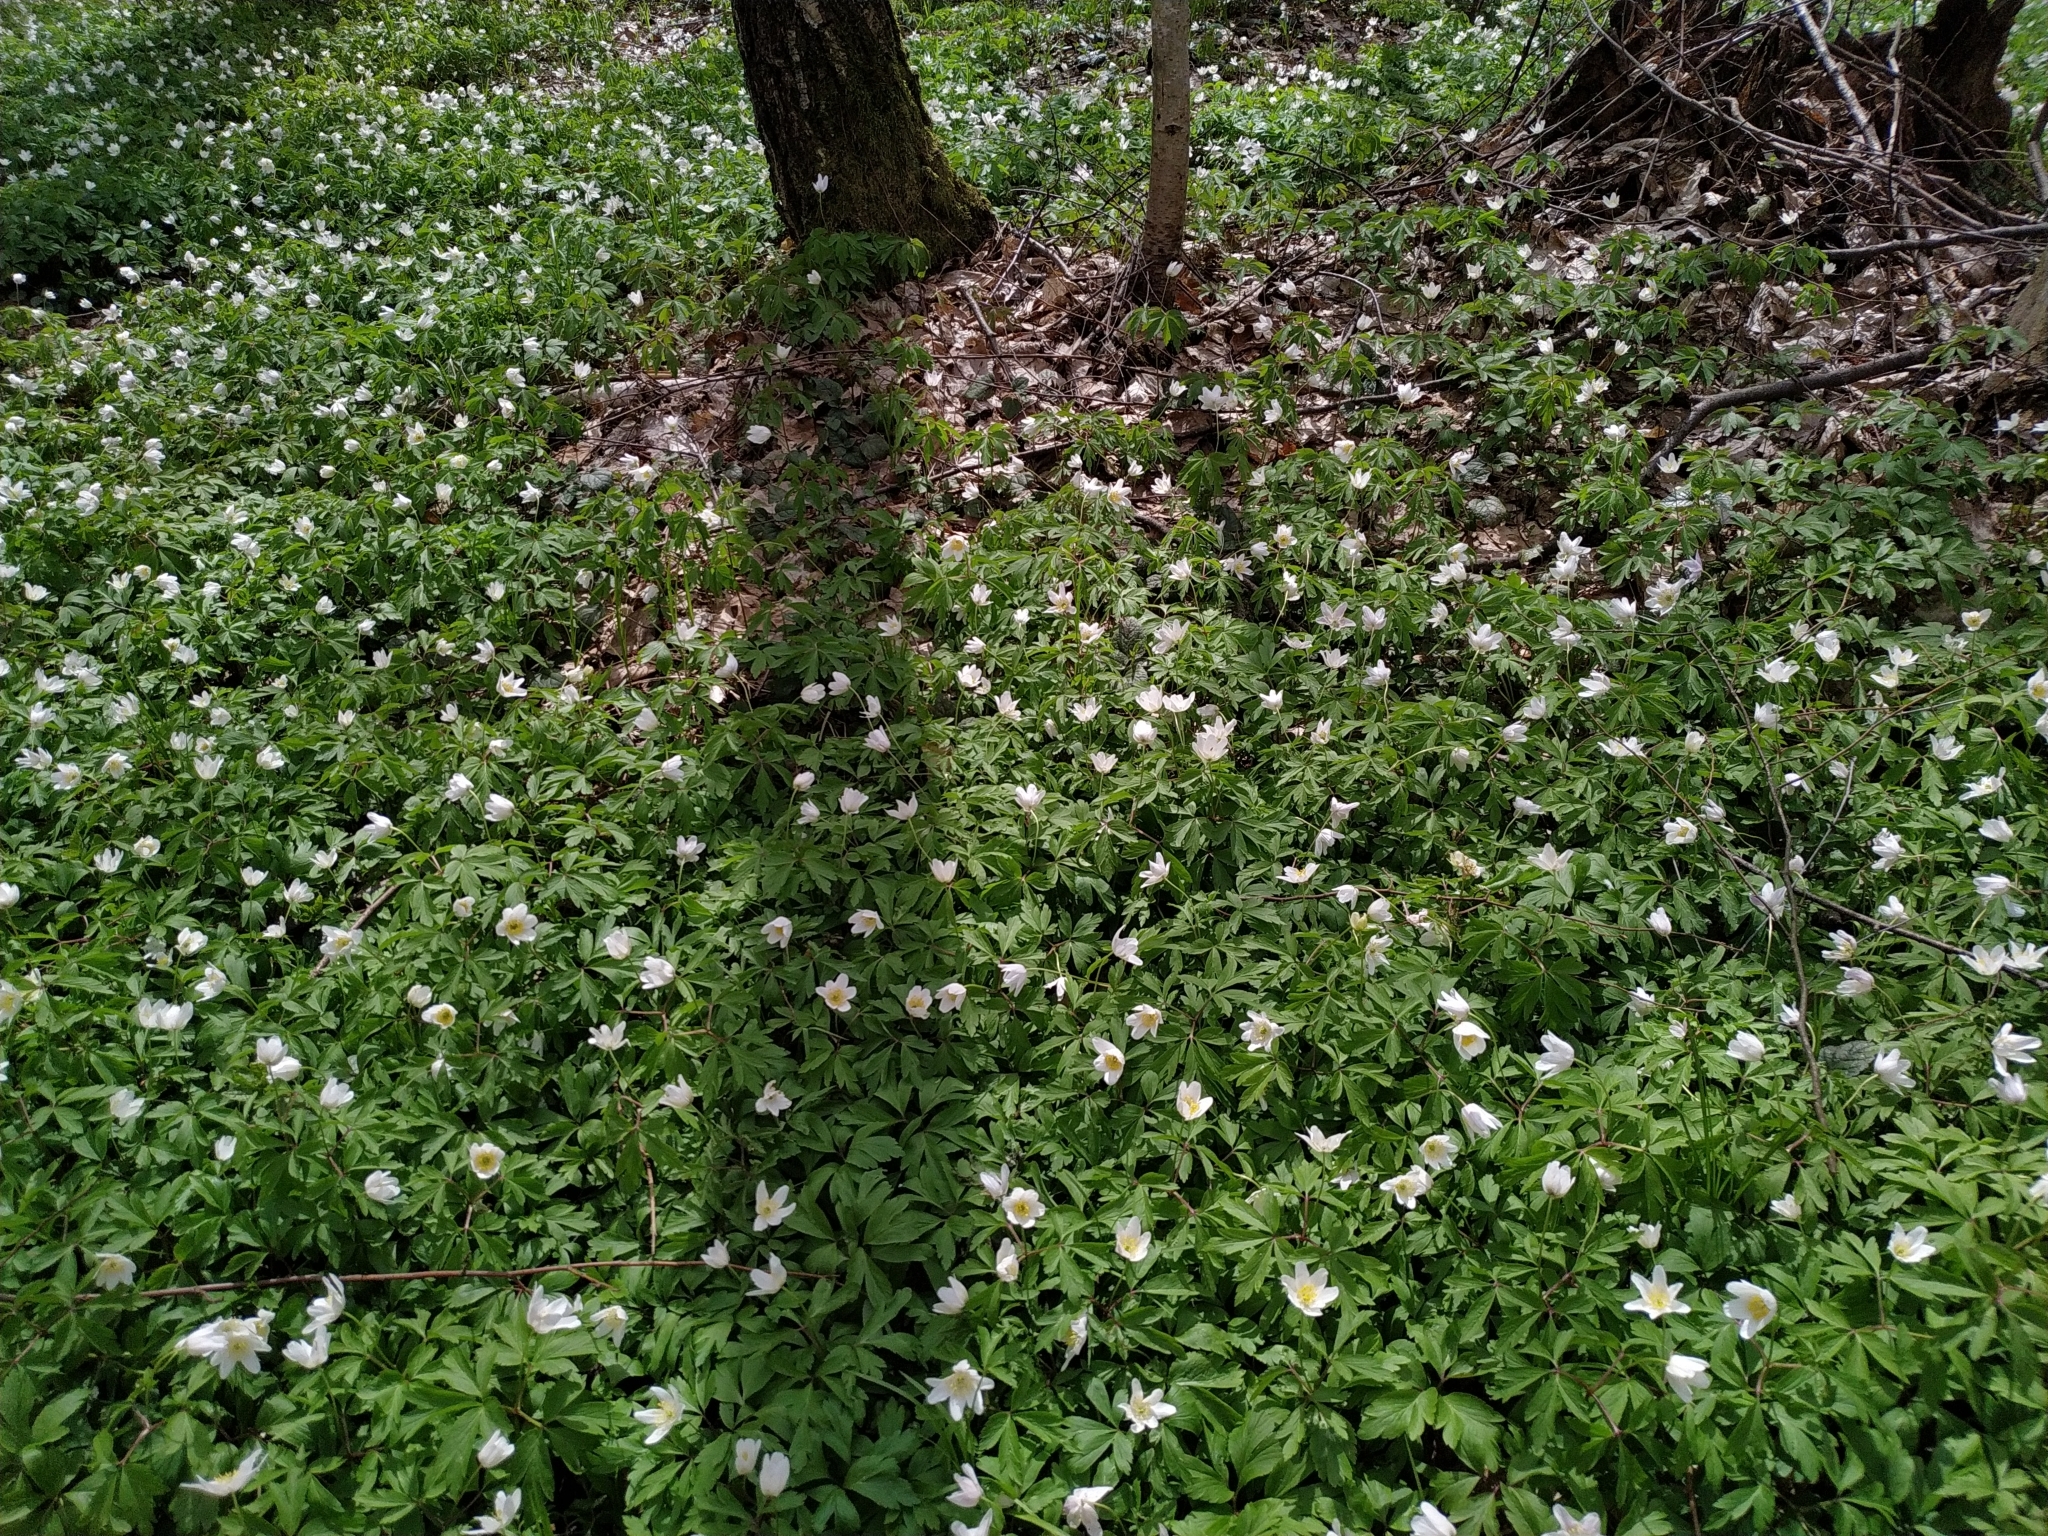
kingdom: Plantae
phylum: Tracheophyta
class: Magnoliopsida
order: Ranunculales
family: Ranunculaceae
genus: Anemone
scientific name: Anemone nemorosa
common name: Wood anemone
